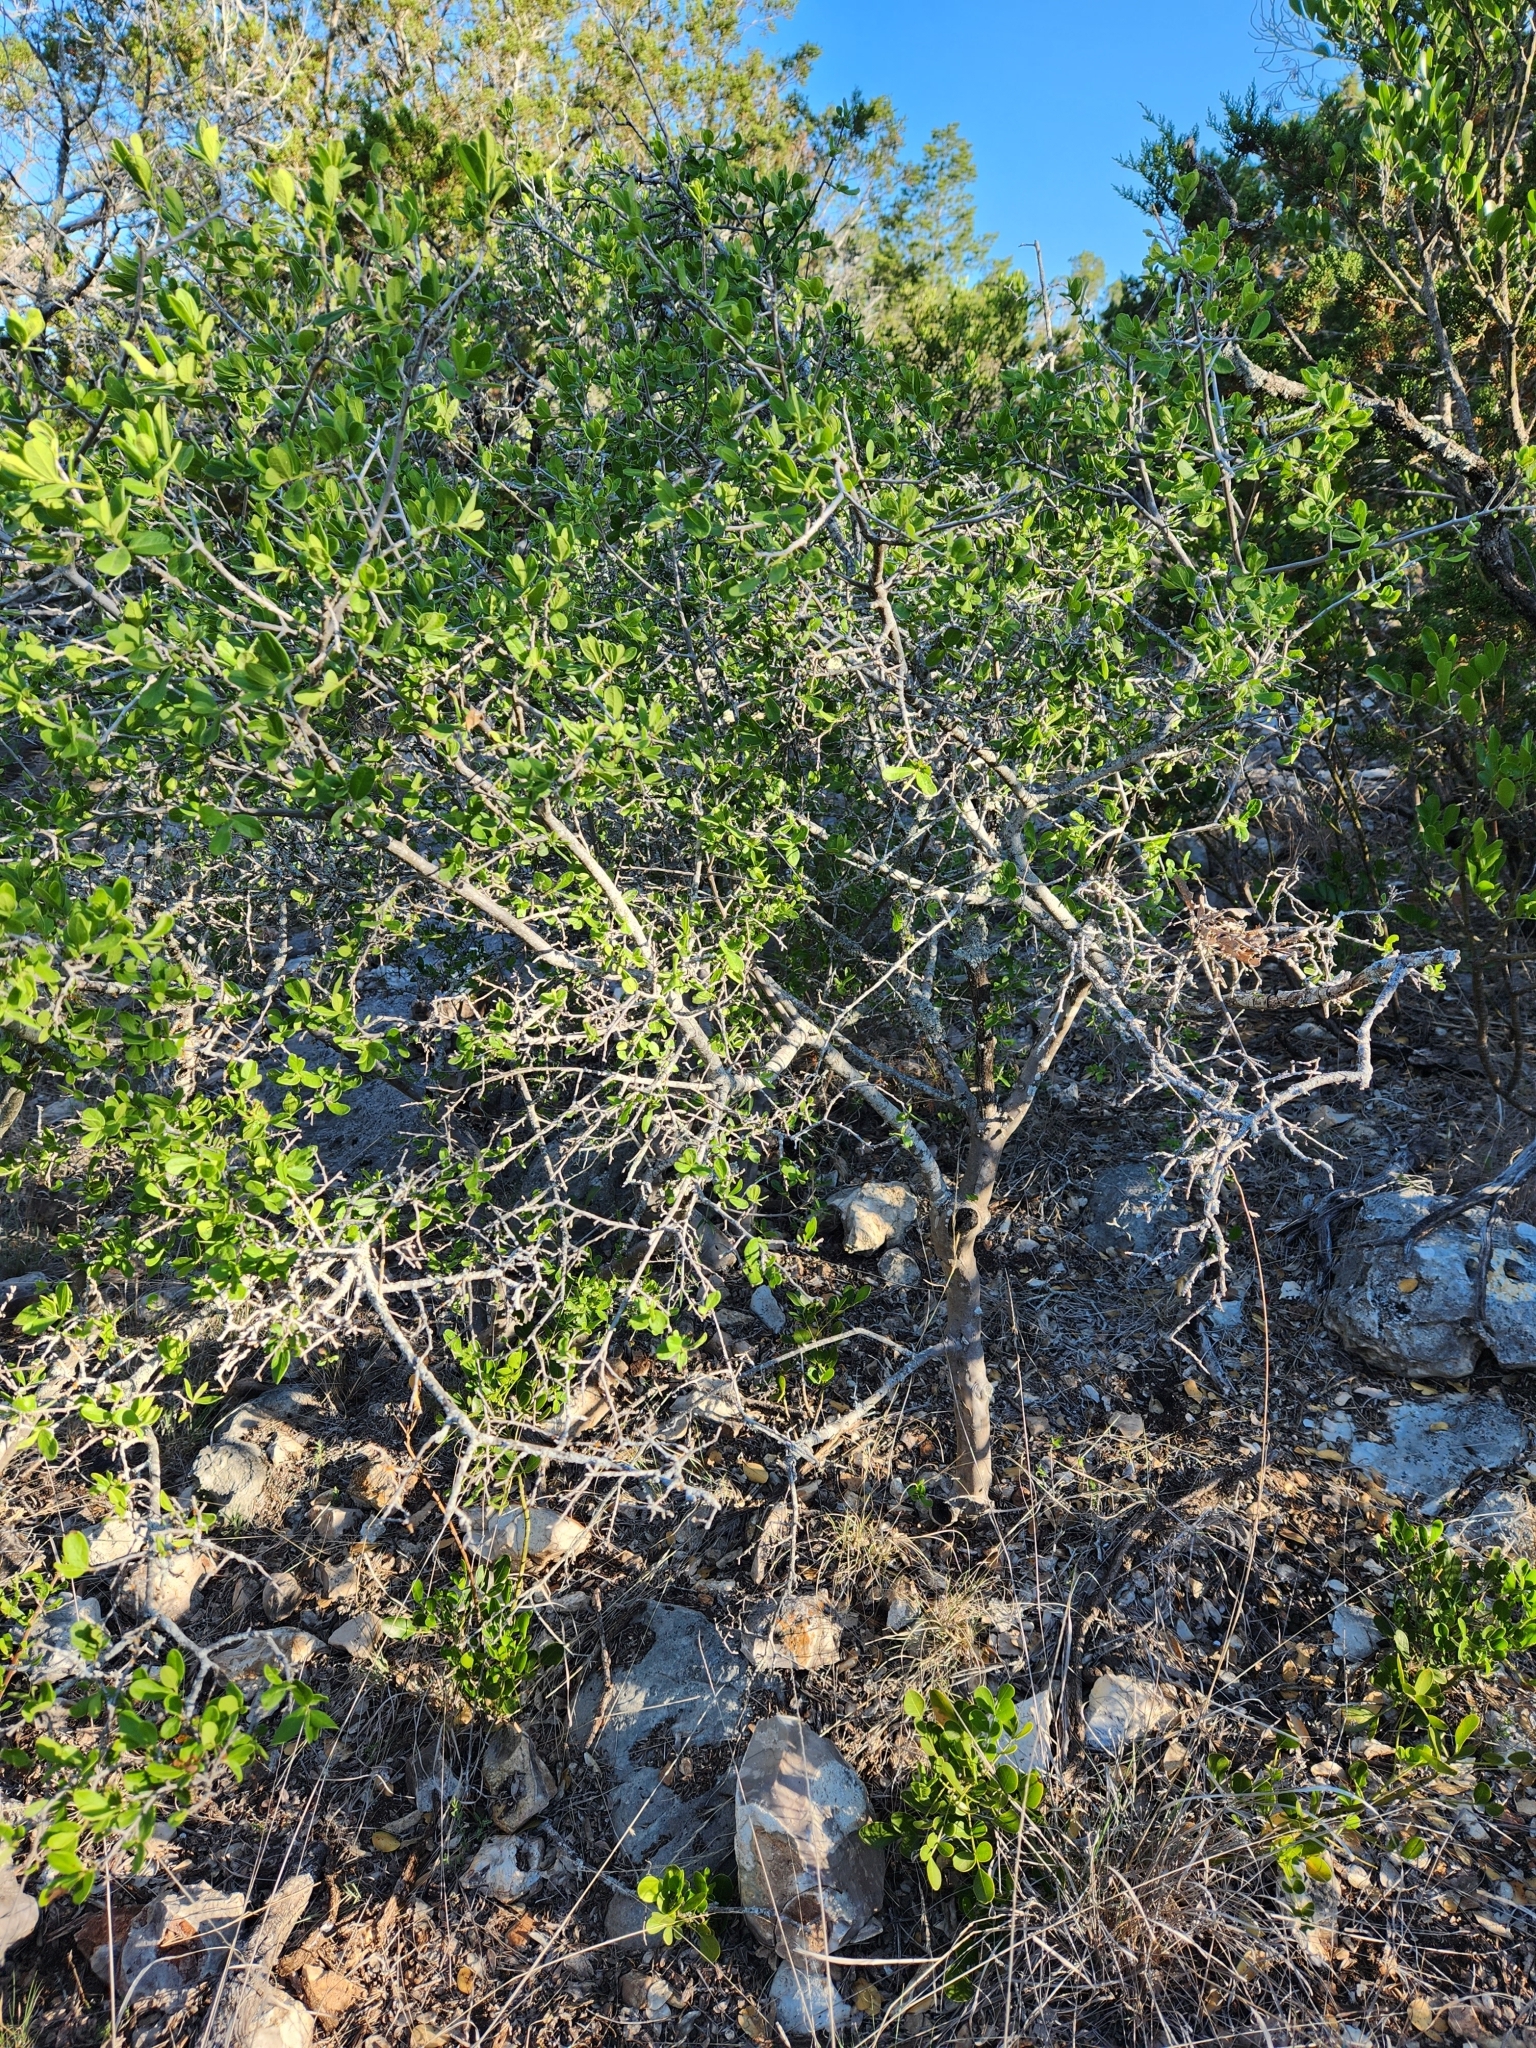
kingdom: Plantae
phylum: Tracheophyta
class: Magnoliopsida
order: Ericales
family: Ebenaceae
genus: Diospyros
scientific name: Diospyros texana
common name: Texas persimmon
